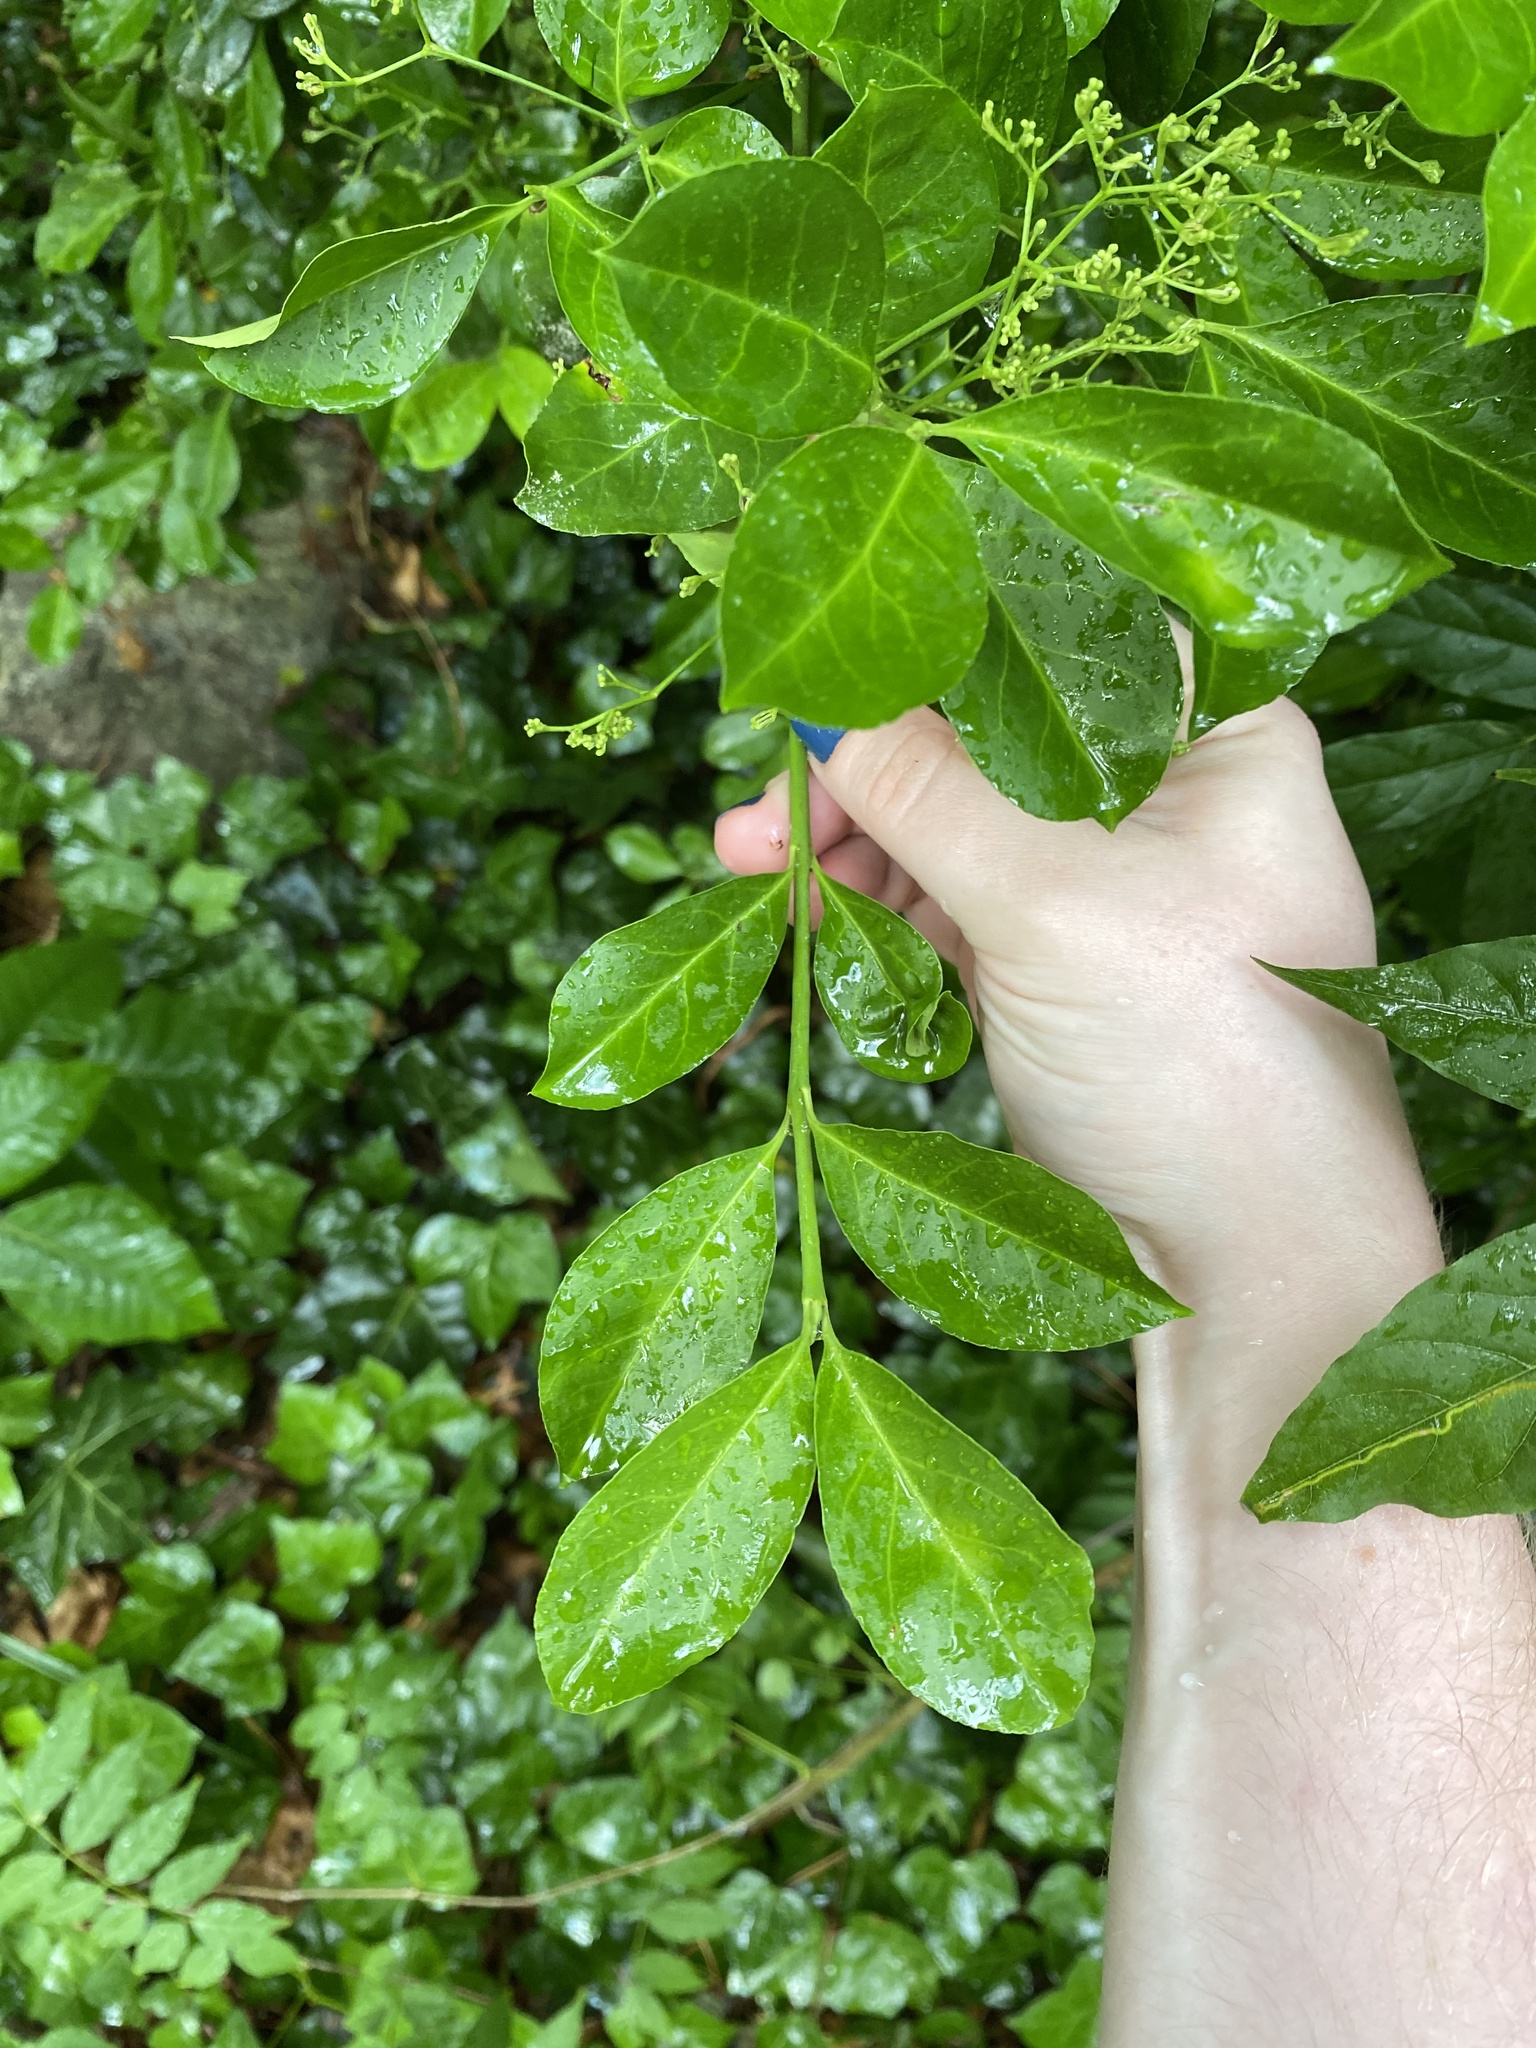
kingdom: Plantae
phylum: Tracheophyta
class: Magnoliopsida
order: Celastrales
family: Celastraceae
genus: Euonymus
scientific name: Euonymus japonicus
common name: Japanese spindletree
